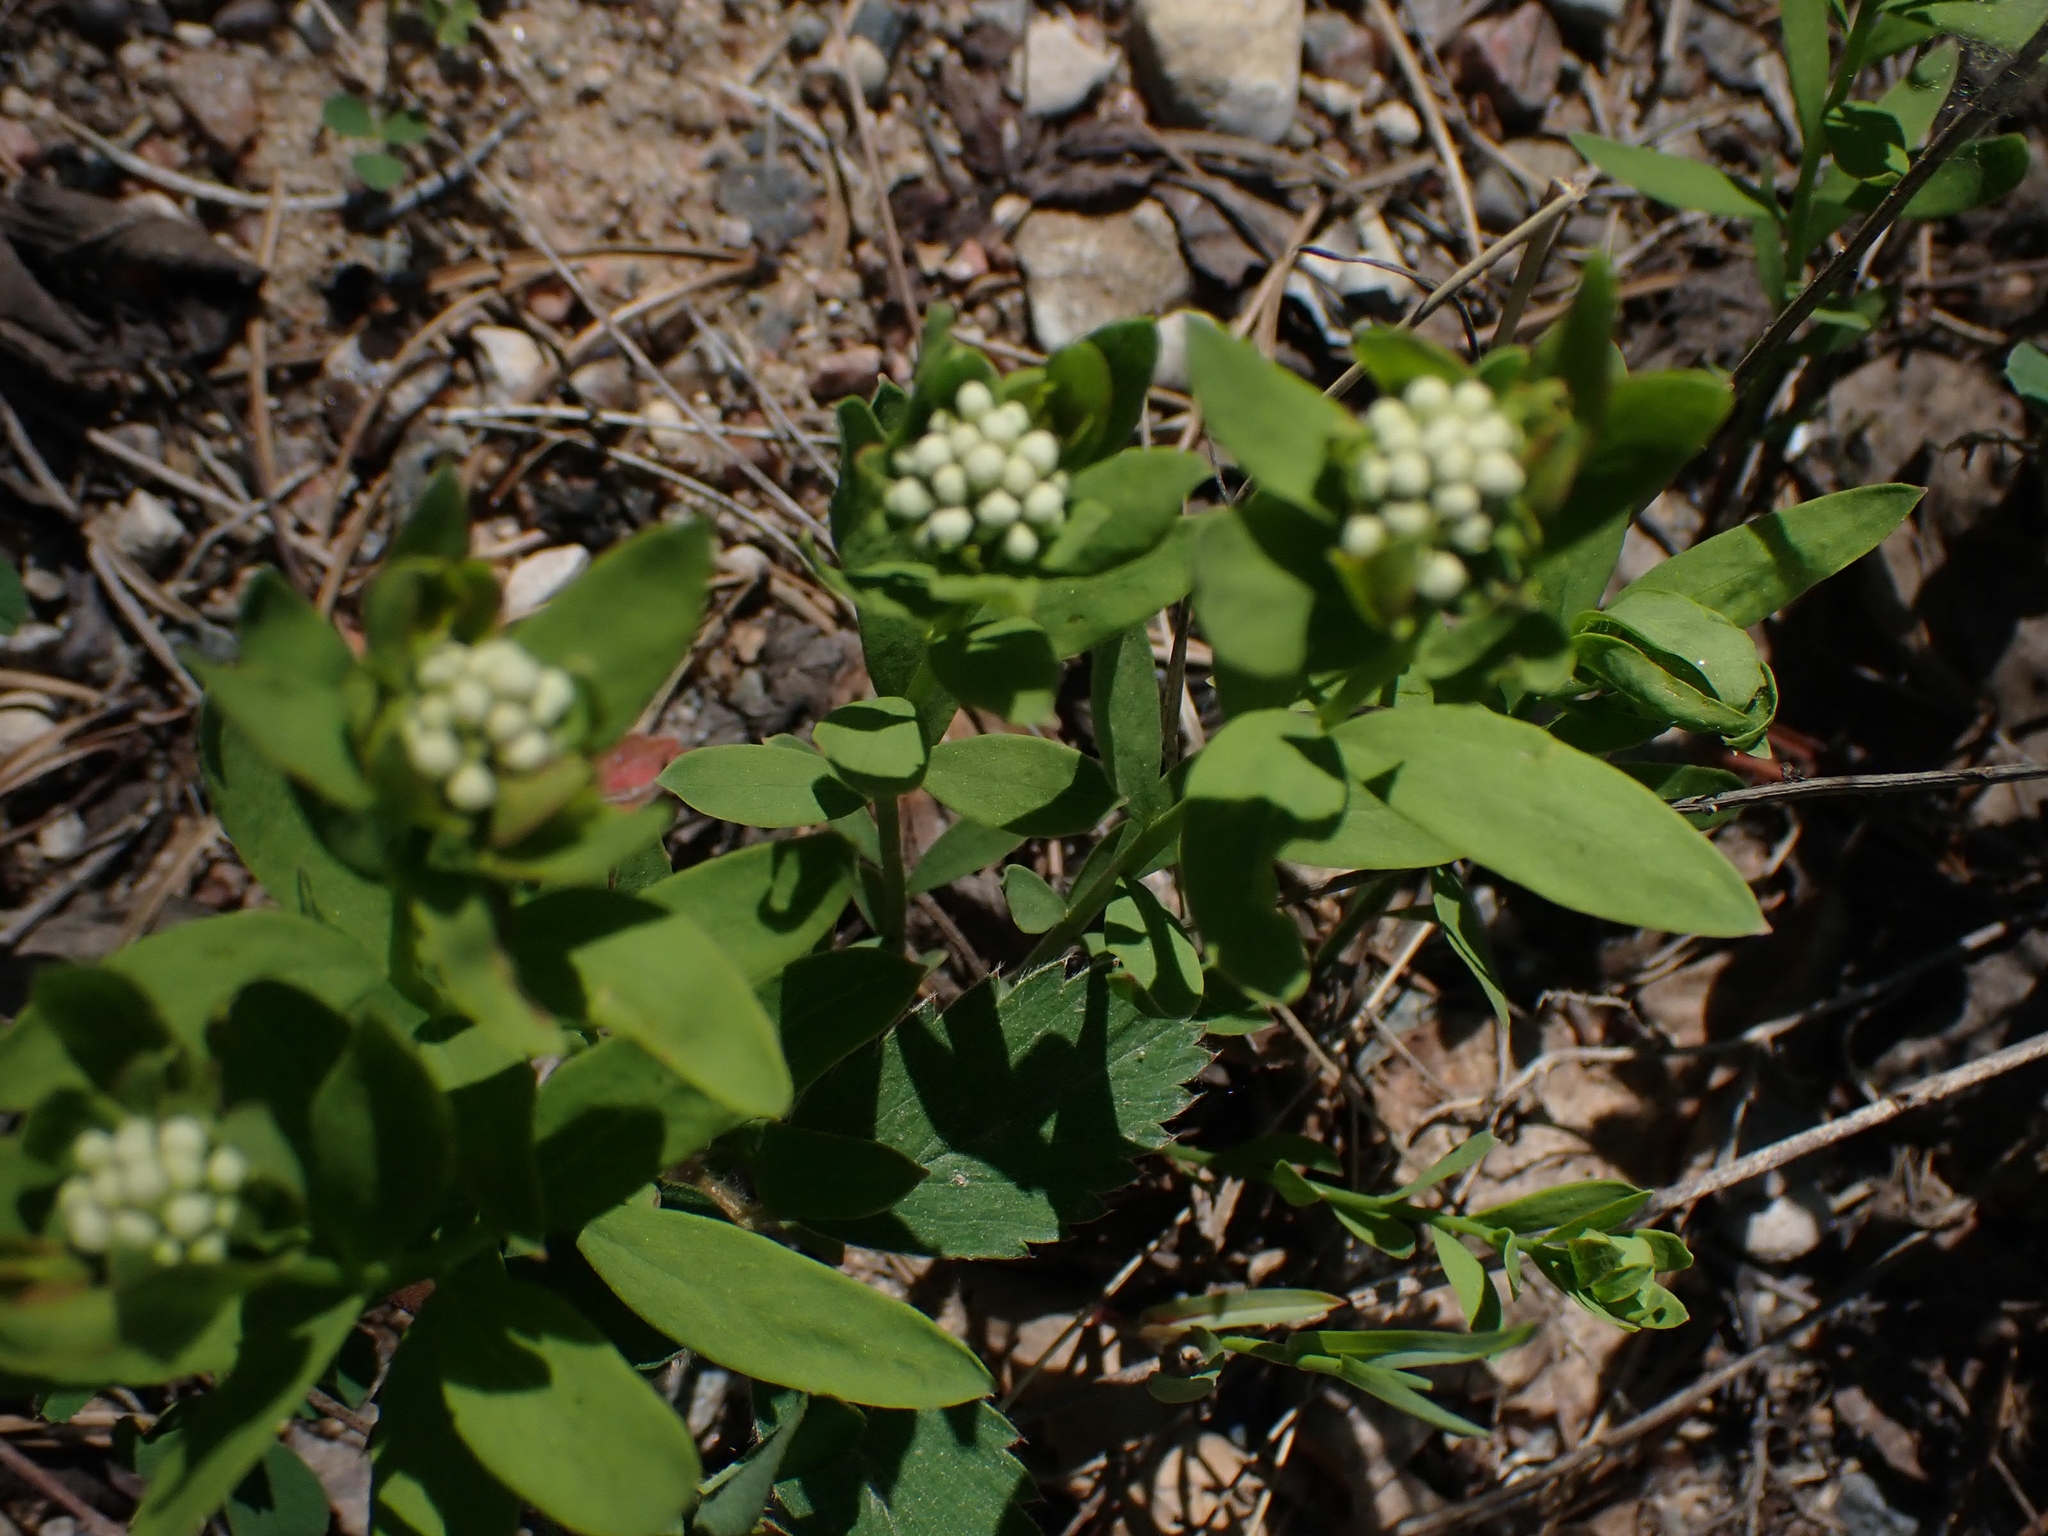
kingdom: Plantae
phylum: Tracheophyta
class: Magnoliopsida
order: Santalales
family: Comandraceae
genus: Comandra
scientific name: Comandra umbellata
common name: Bastard toadflax
